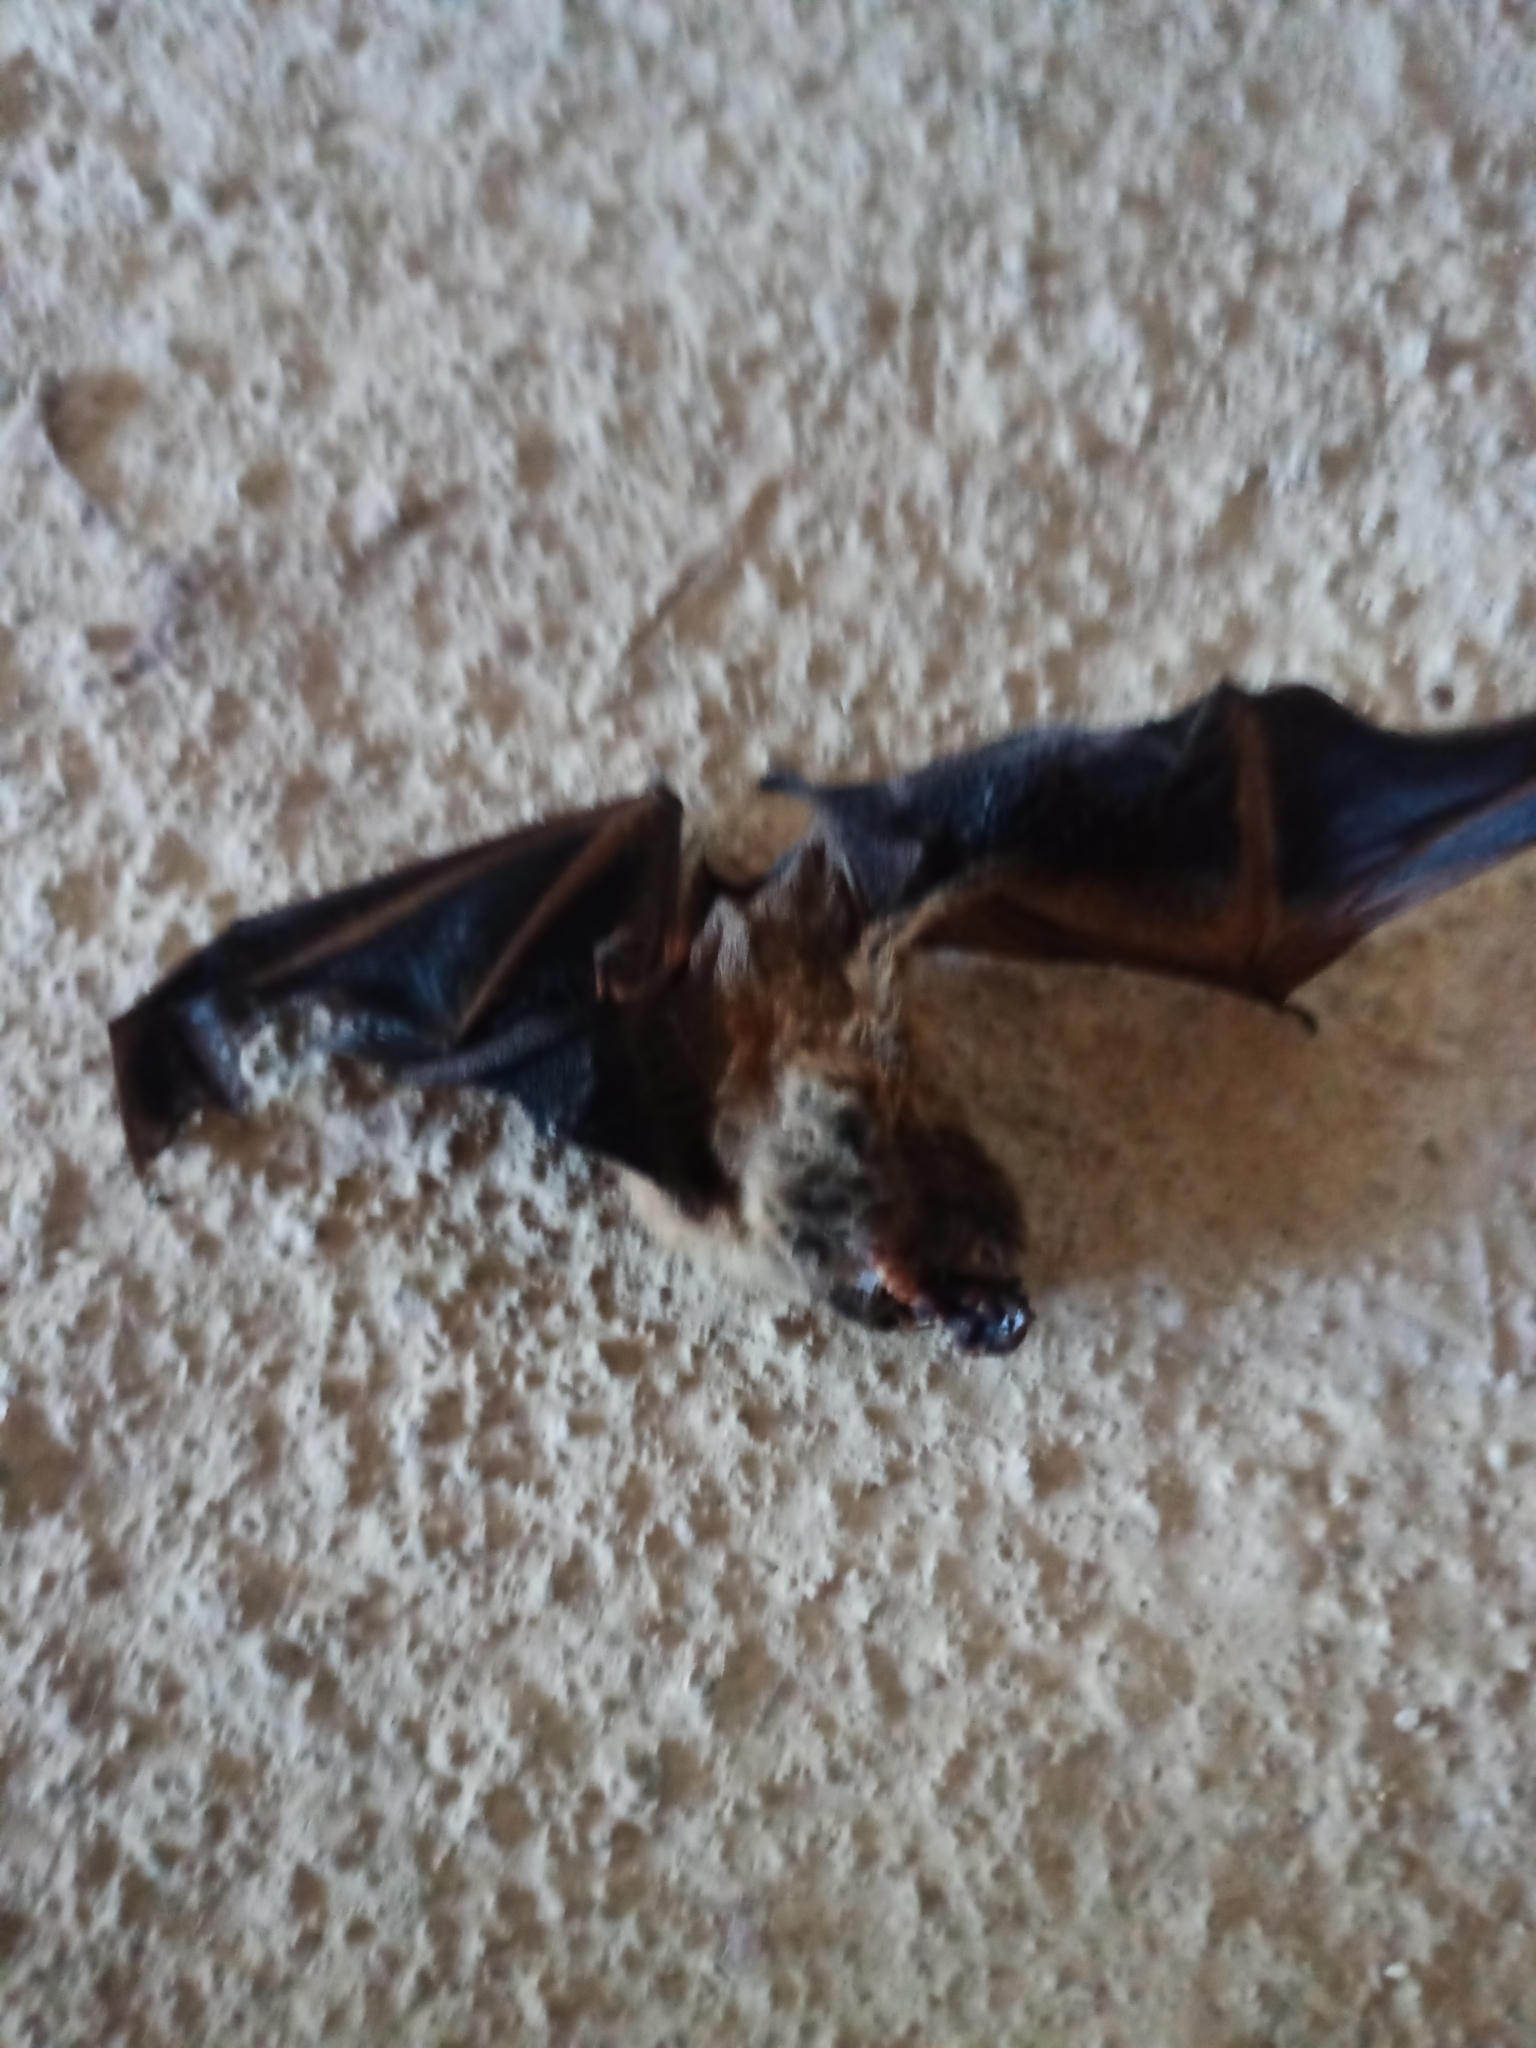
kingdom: Animalia
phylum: Chordata
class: Mammalia
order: Chiroptera
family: Vespertilionidae
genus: Lasiurus
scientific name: Lasiurus frantzii
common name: Desert red bat
